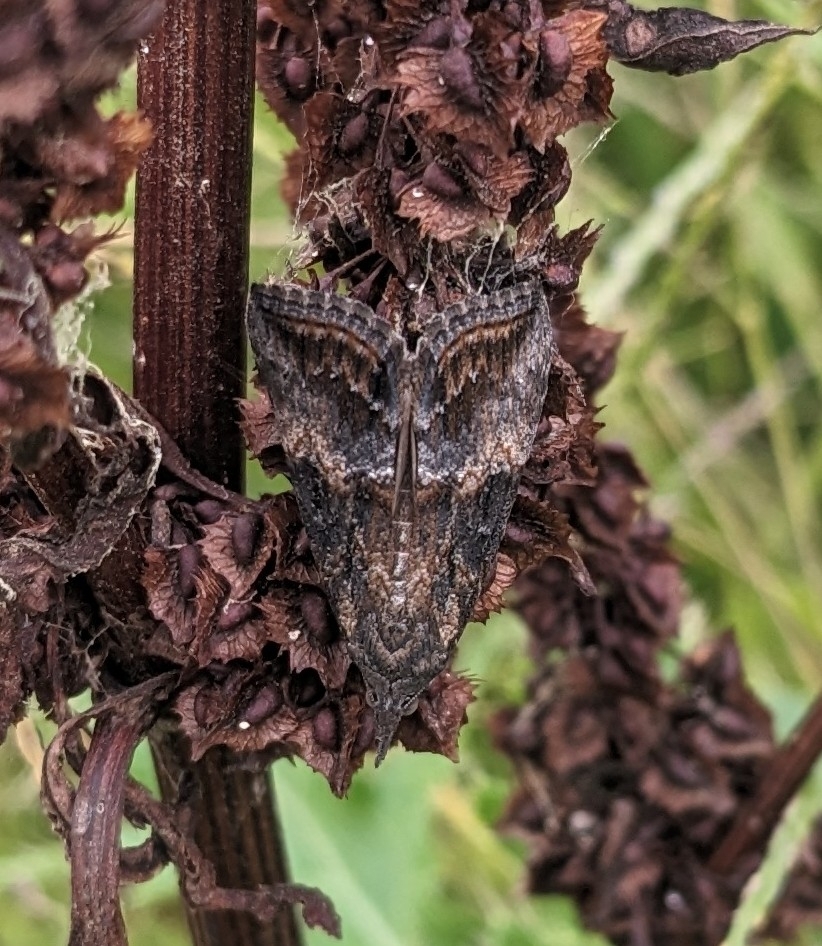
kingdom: Animalia
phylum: Arthropoda
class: Insecta
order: Lepidoptera
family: Erebidae
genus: Hypena
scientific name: Hypena scabra
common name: Green cloverworm
